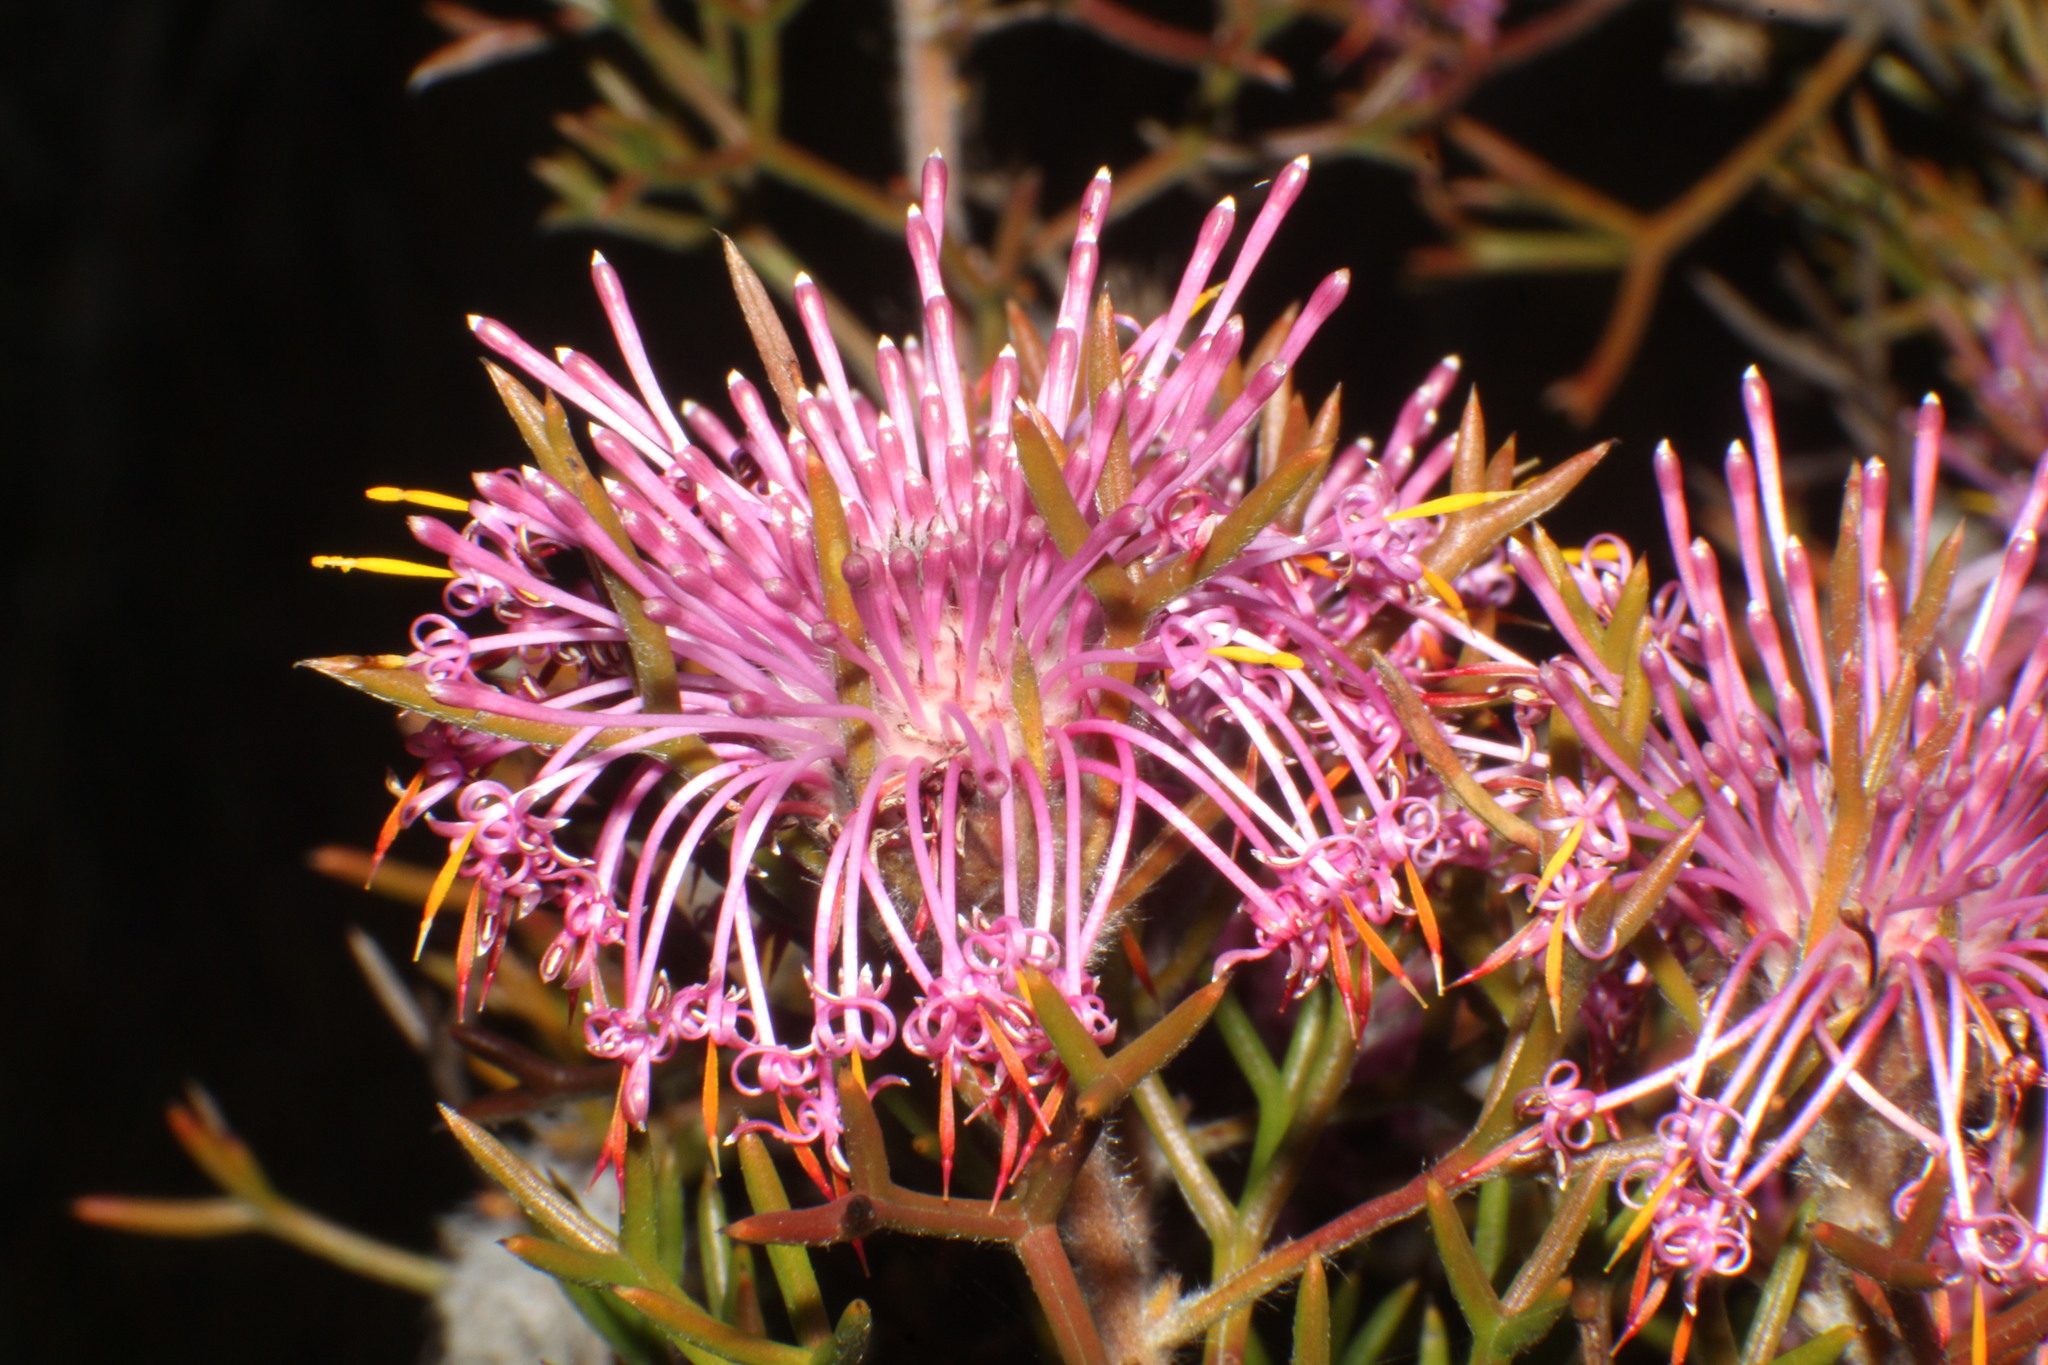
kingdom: Plantae
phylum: Tracheophyta
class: Magnoliopsida
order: Proteales
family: Proteaceae
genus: Isopogon
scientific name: Isopogon formosus
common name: Rose-coneflower
